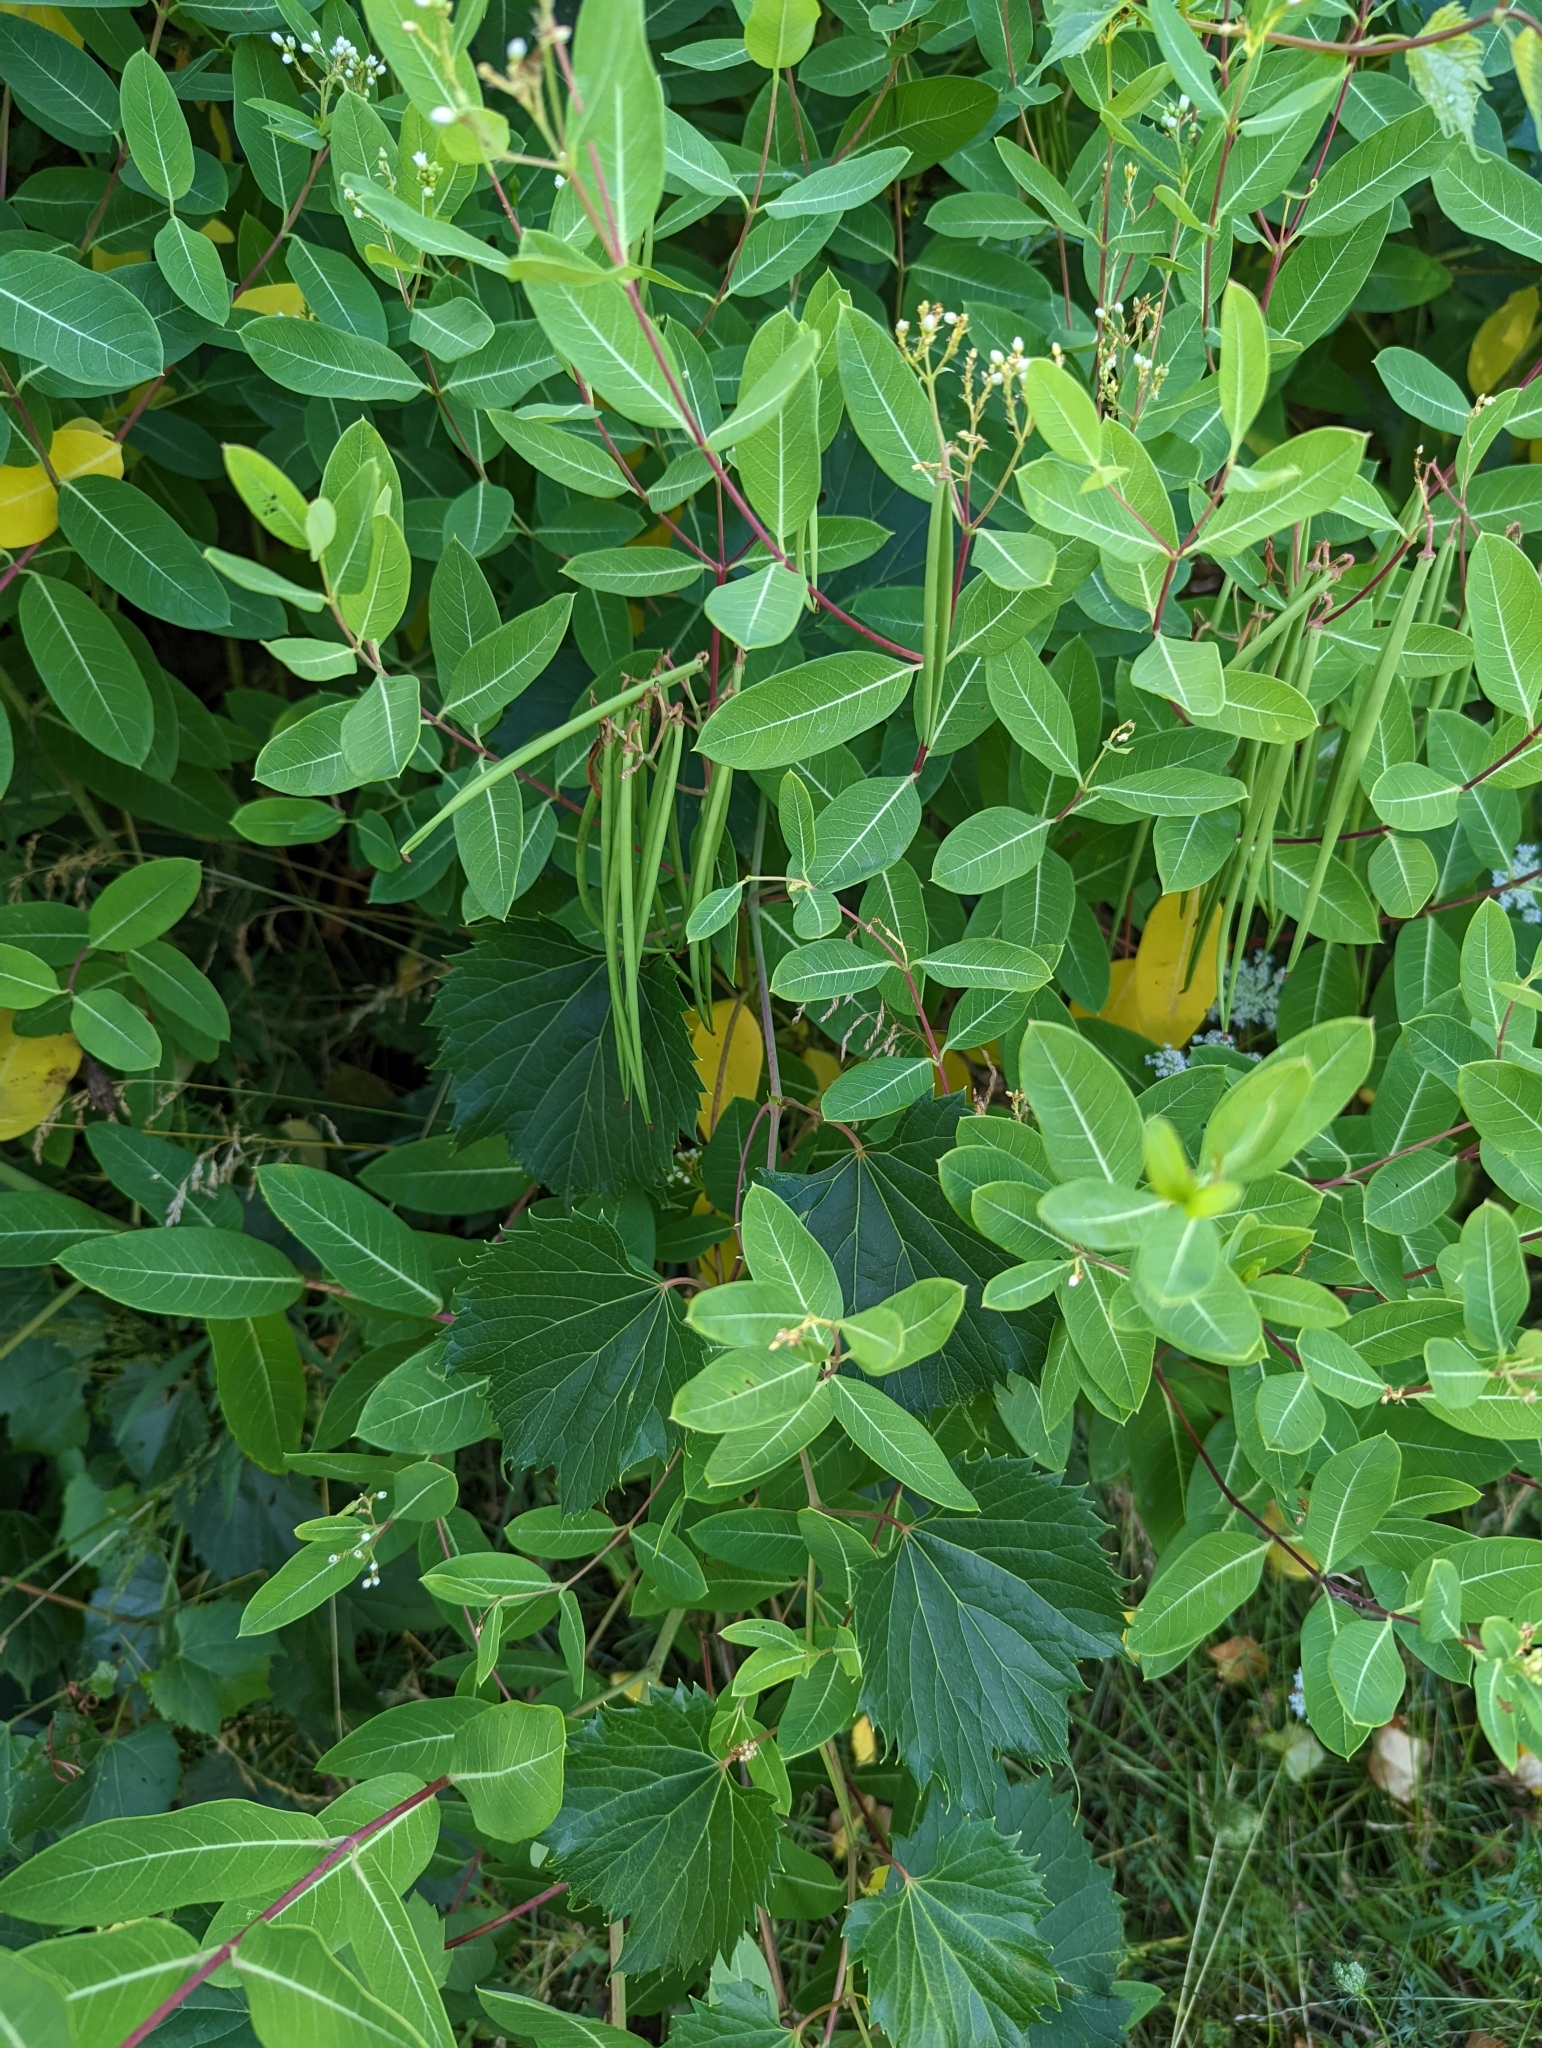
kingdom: Plantae
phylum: Tracheophyta
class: Magnoliopsida
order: Gentianales
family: Apocynaceae
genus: Apocynum
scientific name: Apocynum cannabinum
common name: Hemp dogbane
